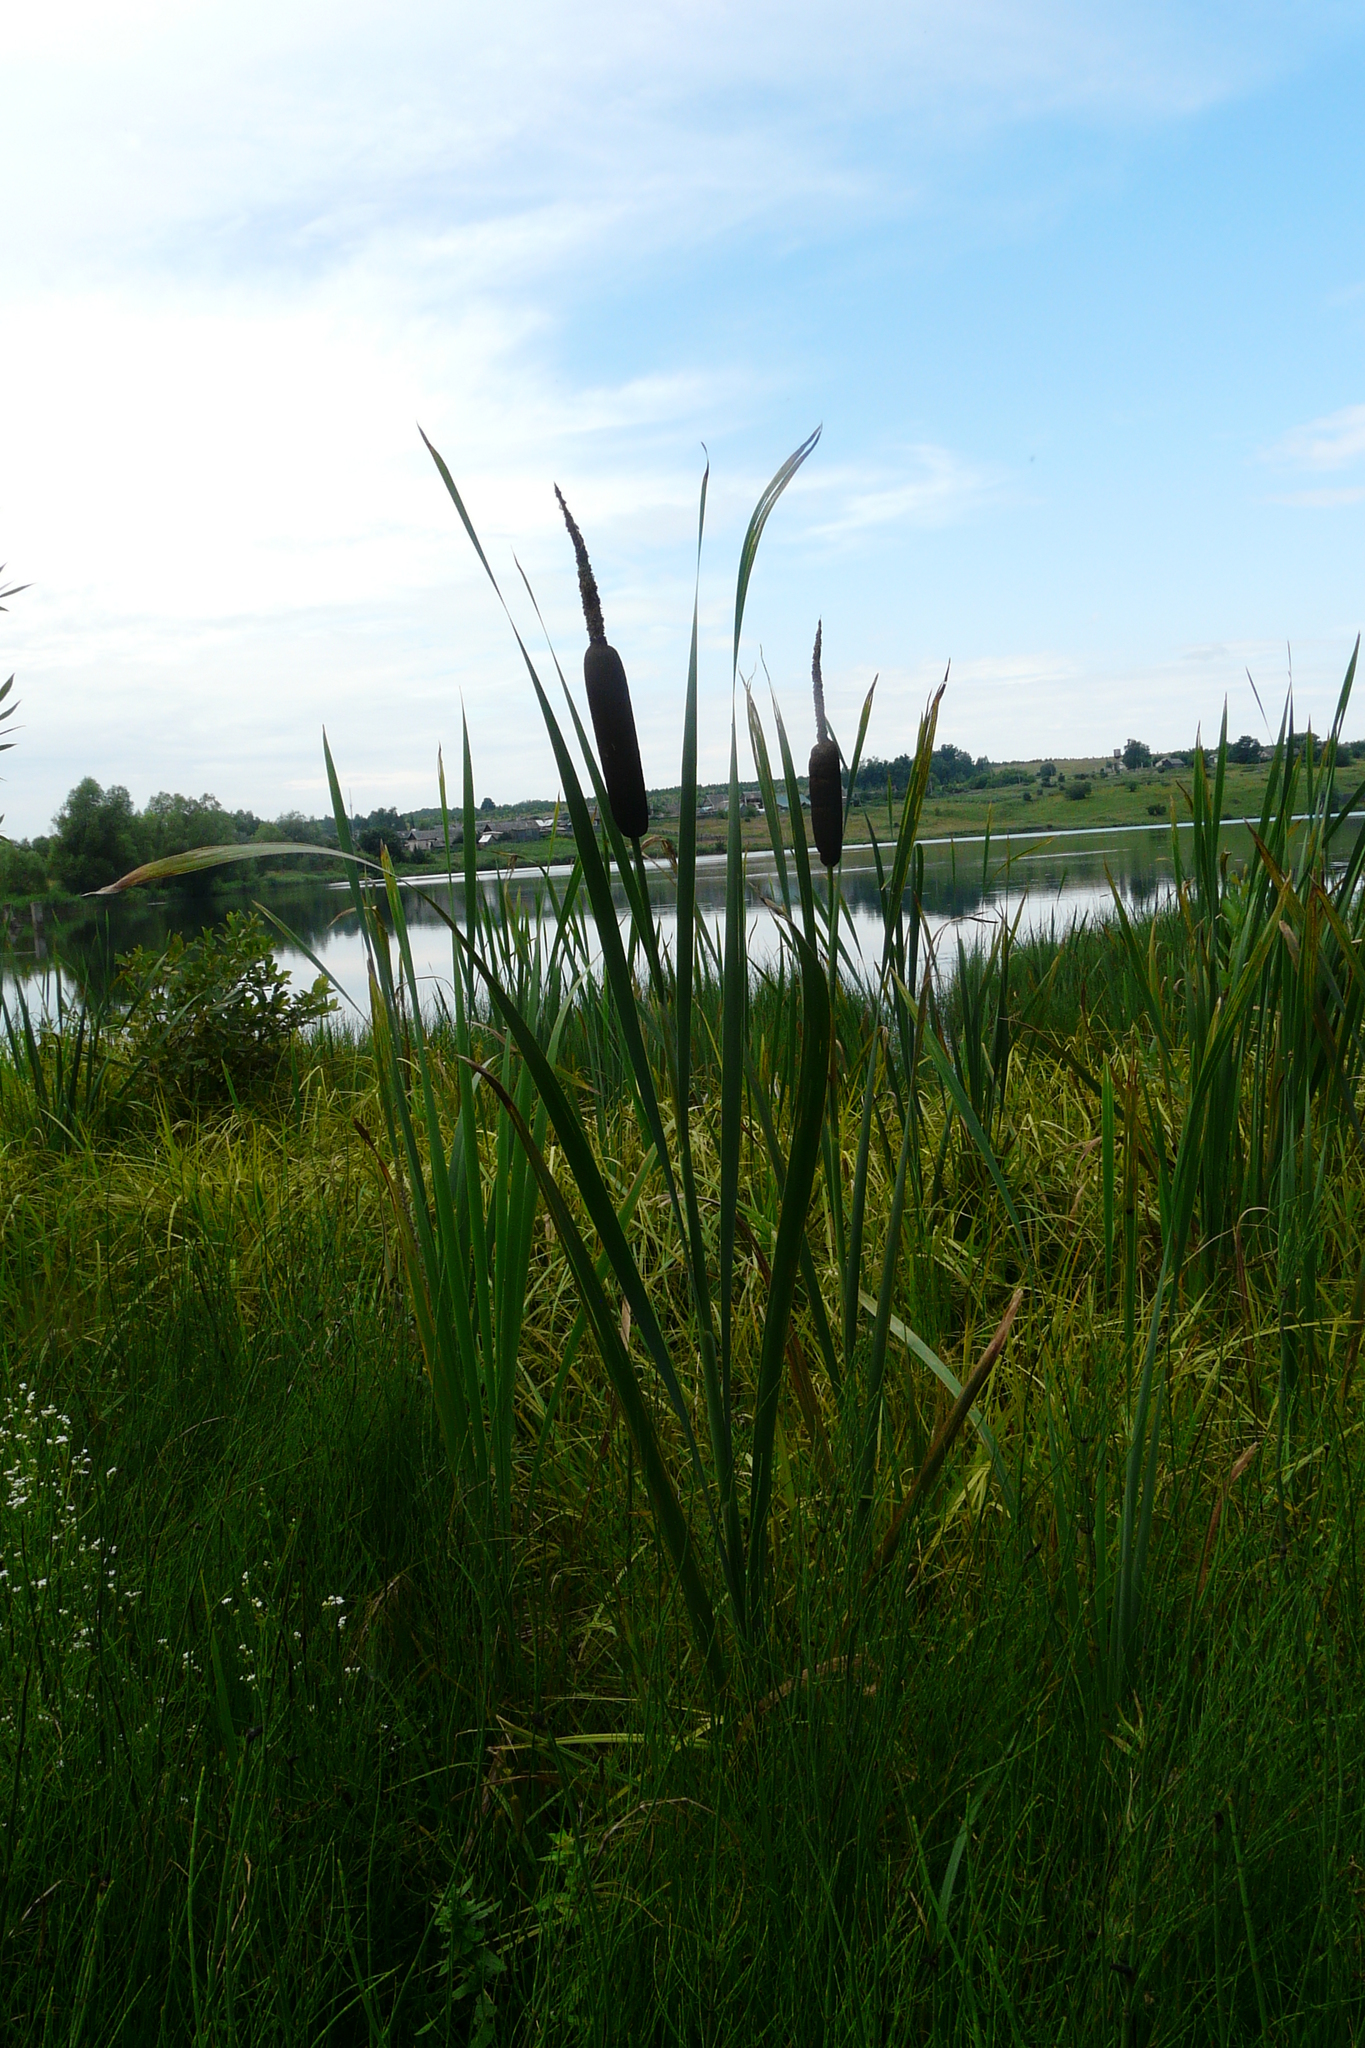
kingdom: Plantae
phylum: Tracheophyta
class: Liliopsida
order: Poales
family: Typhaceae
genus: Typha
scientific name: Typha latifolia
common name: Broadleaf cattail
